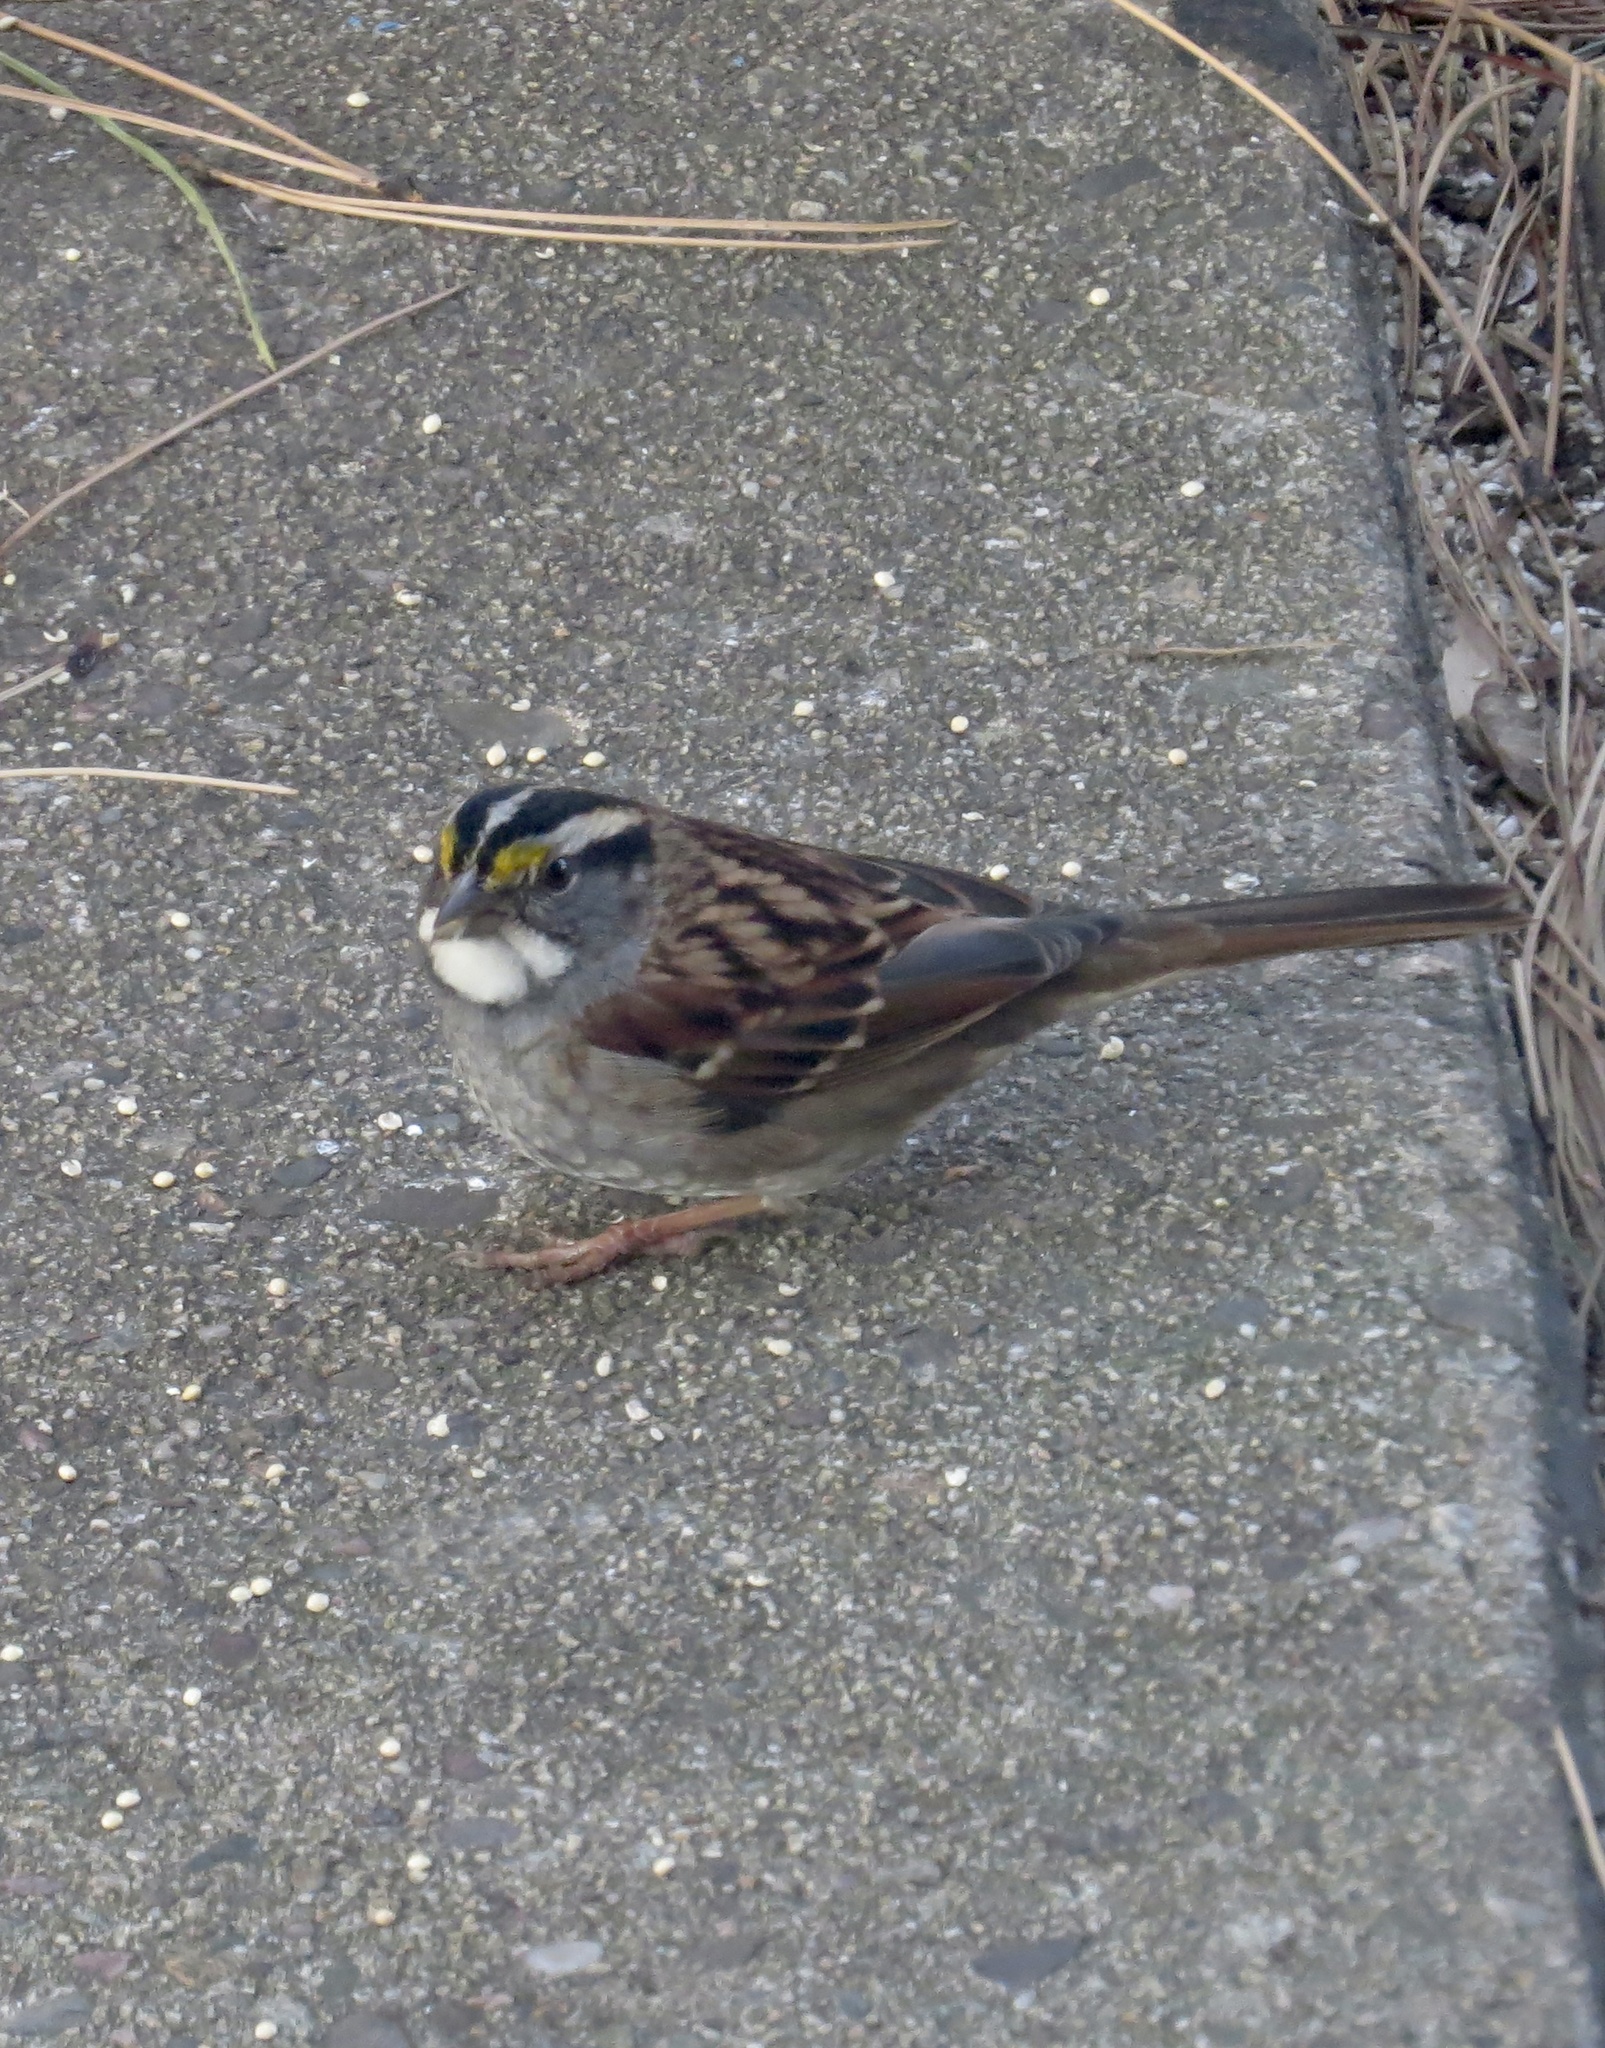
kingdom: Animalia
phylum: Chordata
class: Aves
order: Passeriformes
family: Passerellidae
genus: Zonotrichia
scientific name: Zonotrichia albicollis
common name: White-throated sparrow
